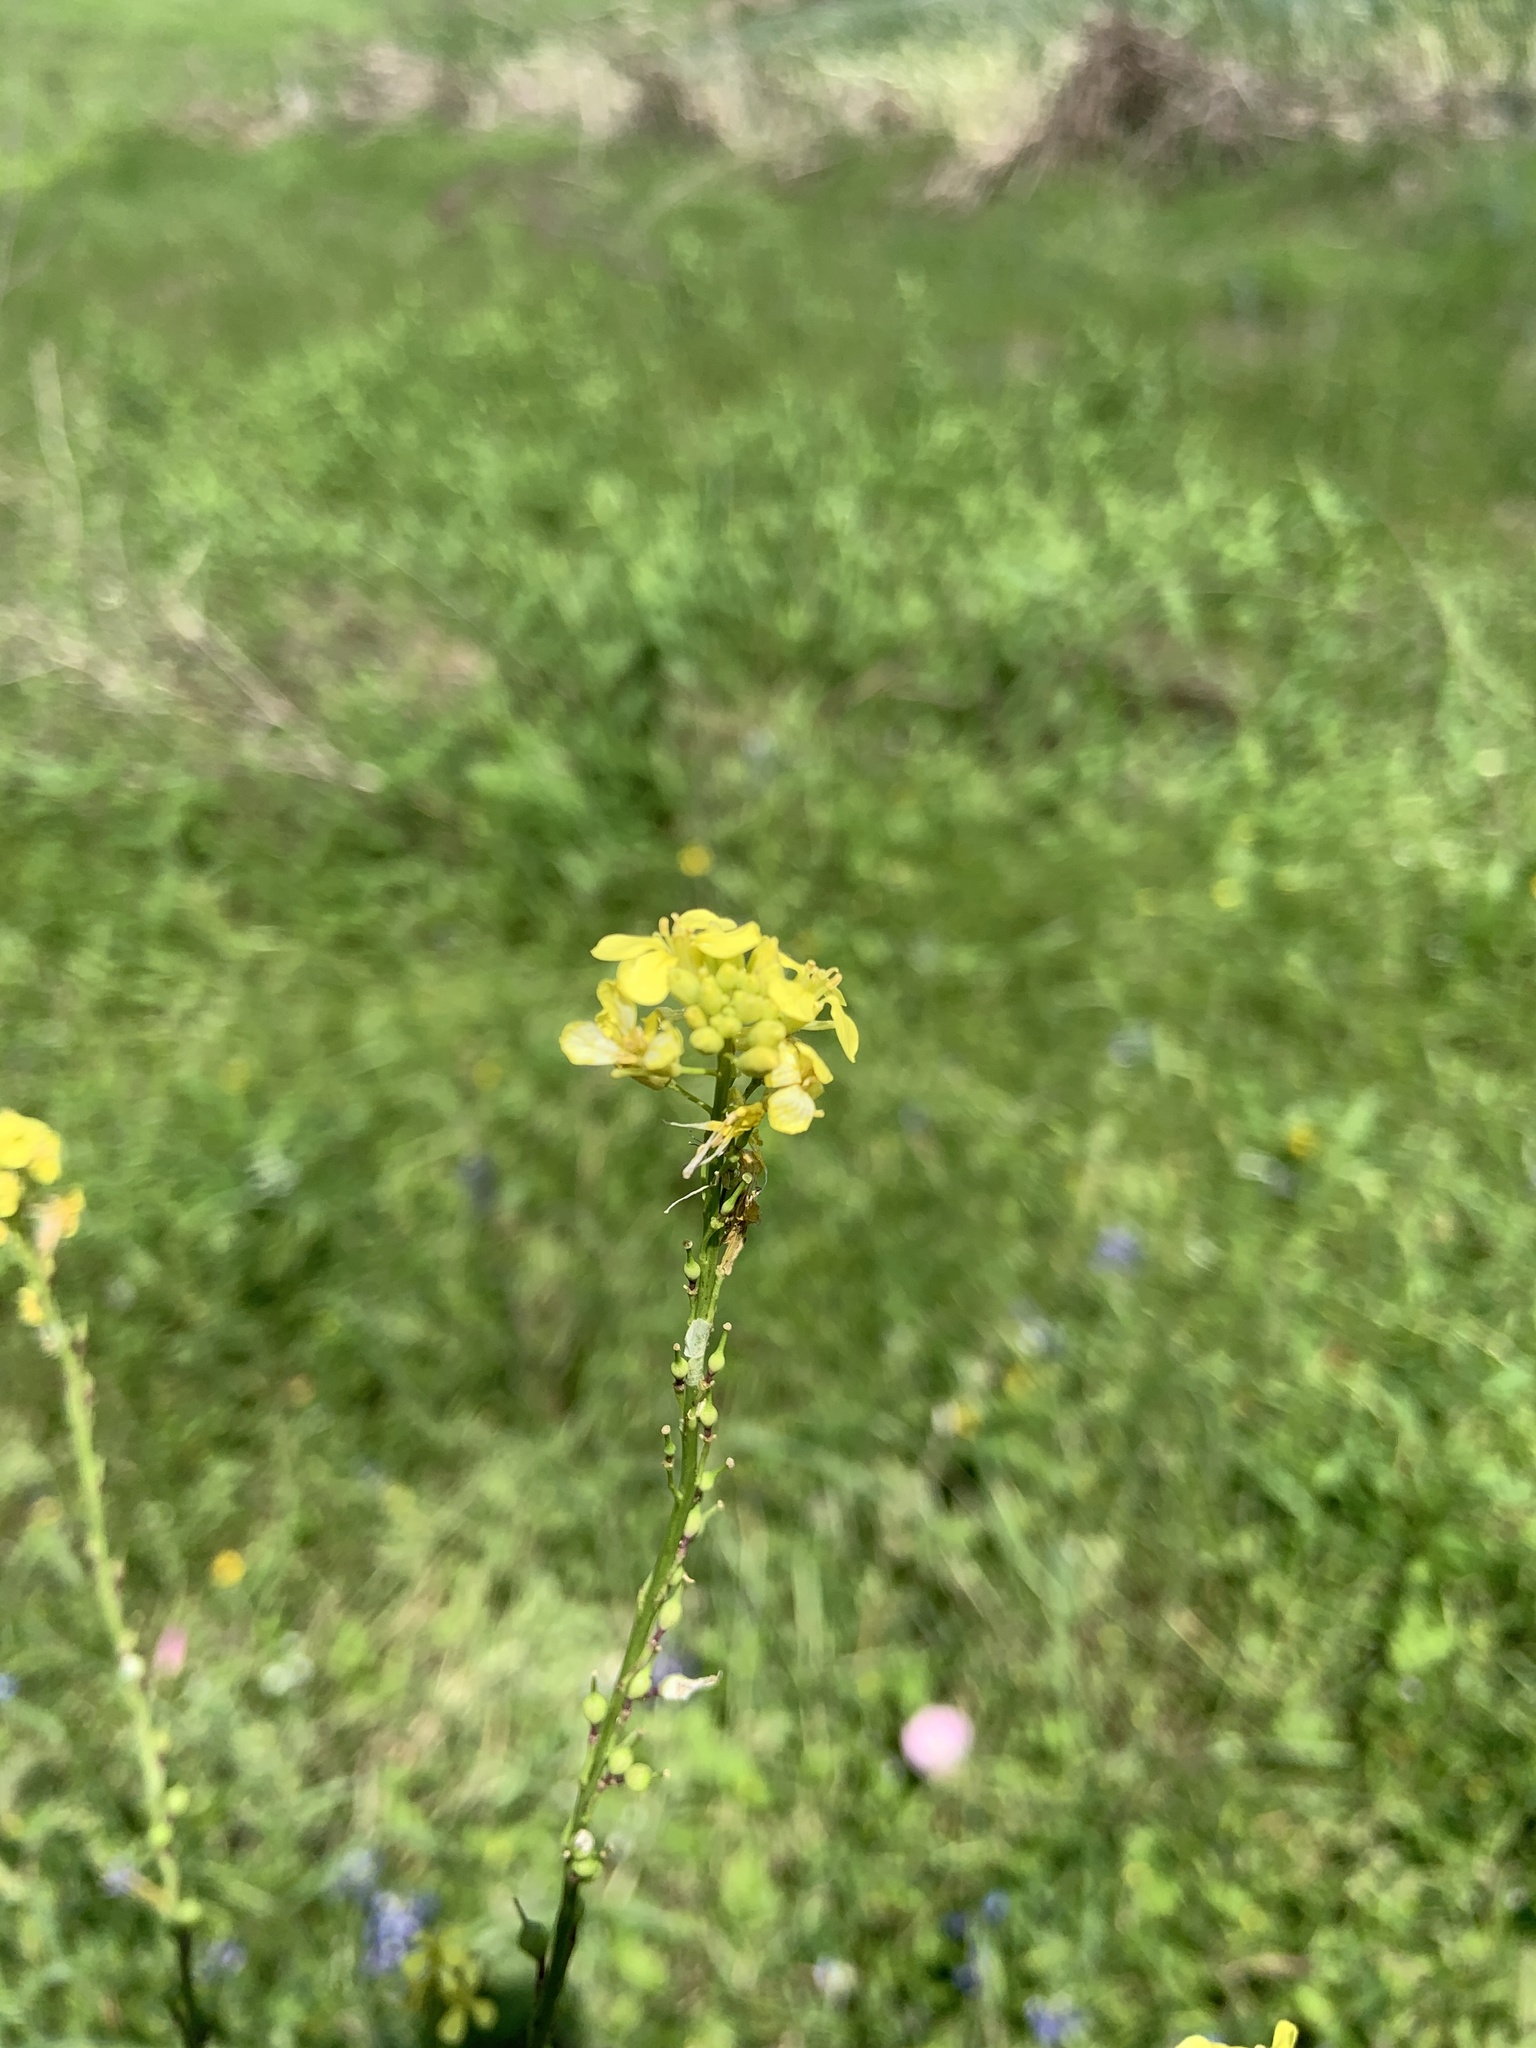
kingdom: Plantae
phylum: Tracheophyta
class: Magnoliopsida
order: Brassicales
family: Brassicaceae
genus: Rapistrum
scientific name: Rapistrum rugosum
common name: Annual bastardcabbage
